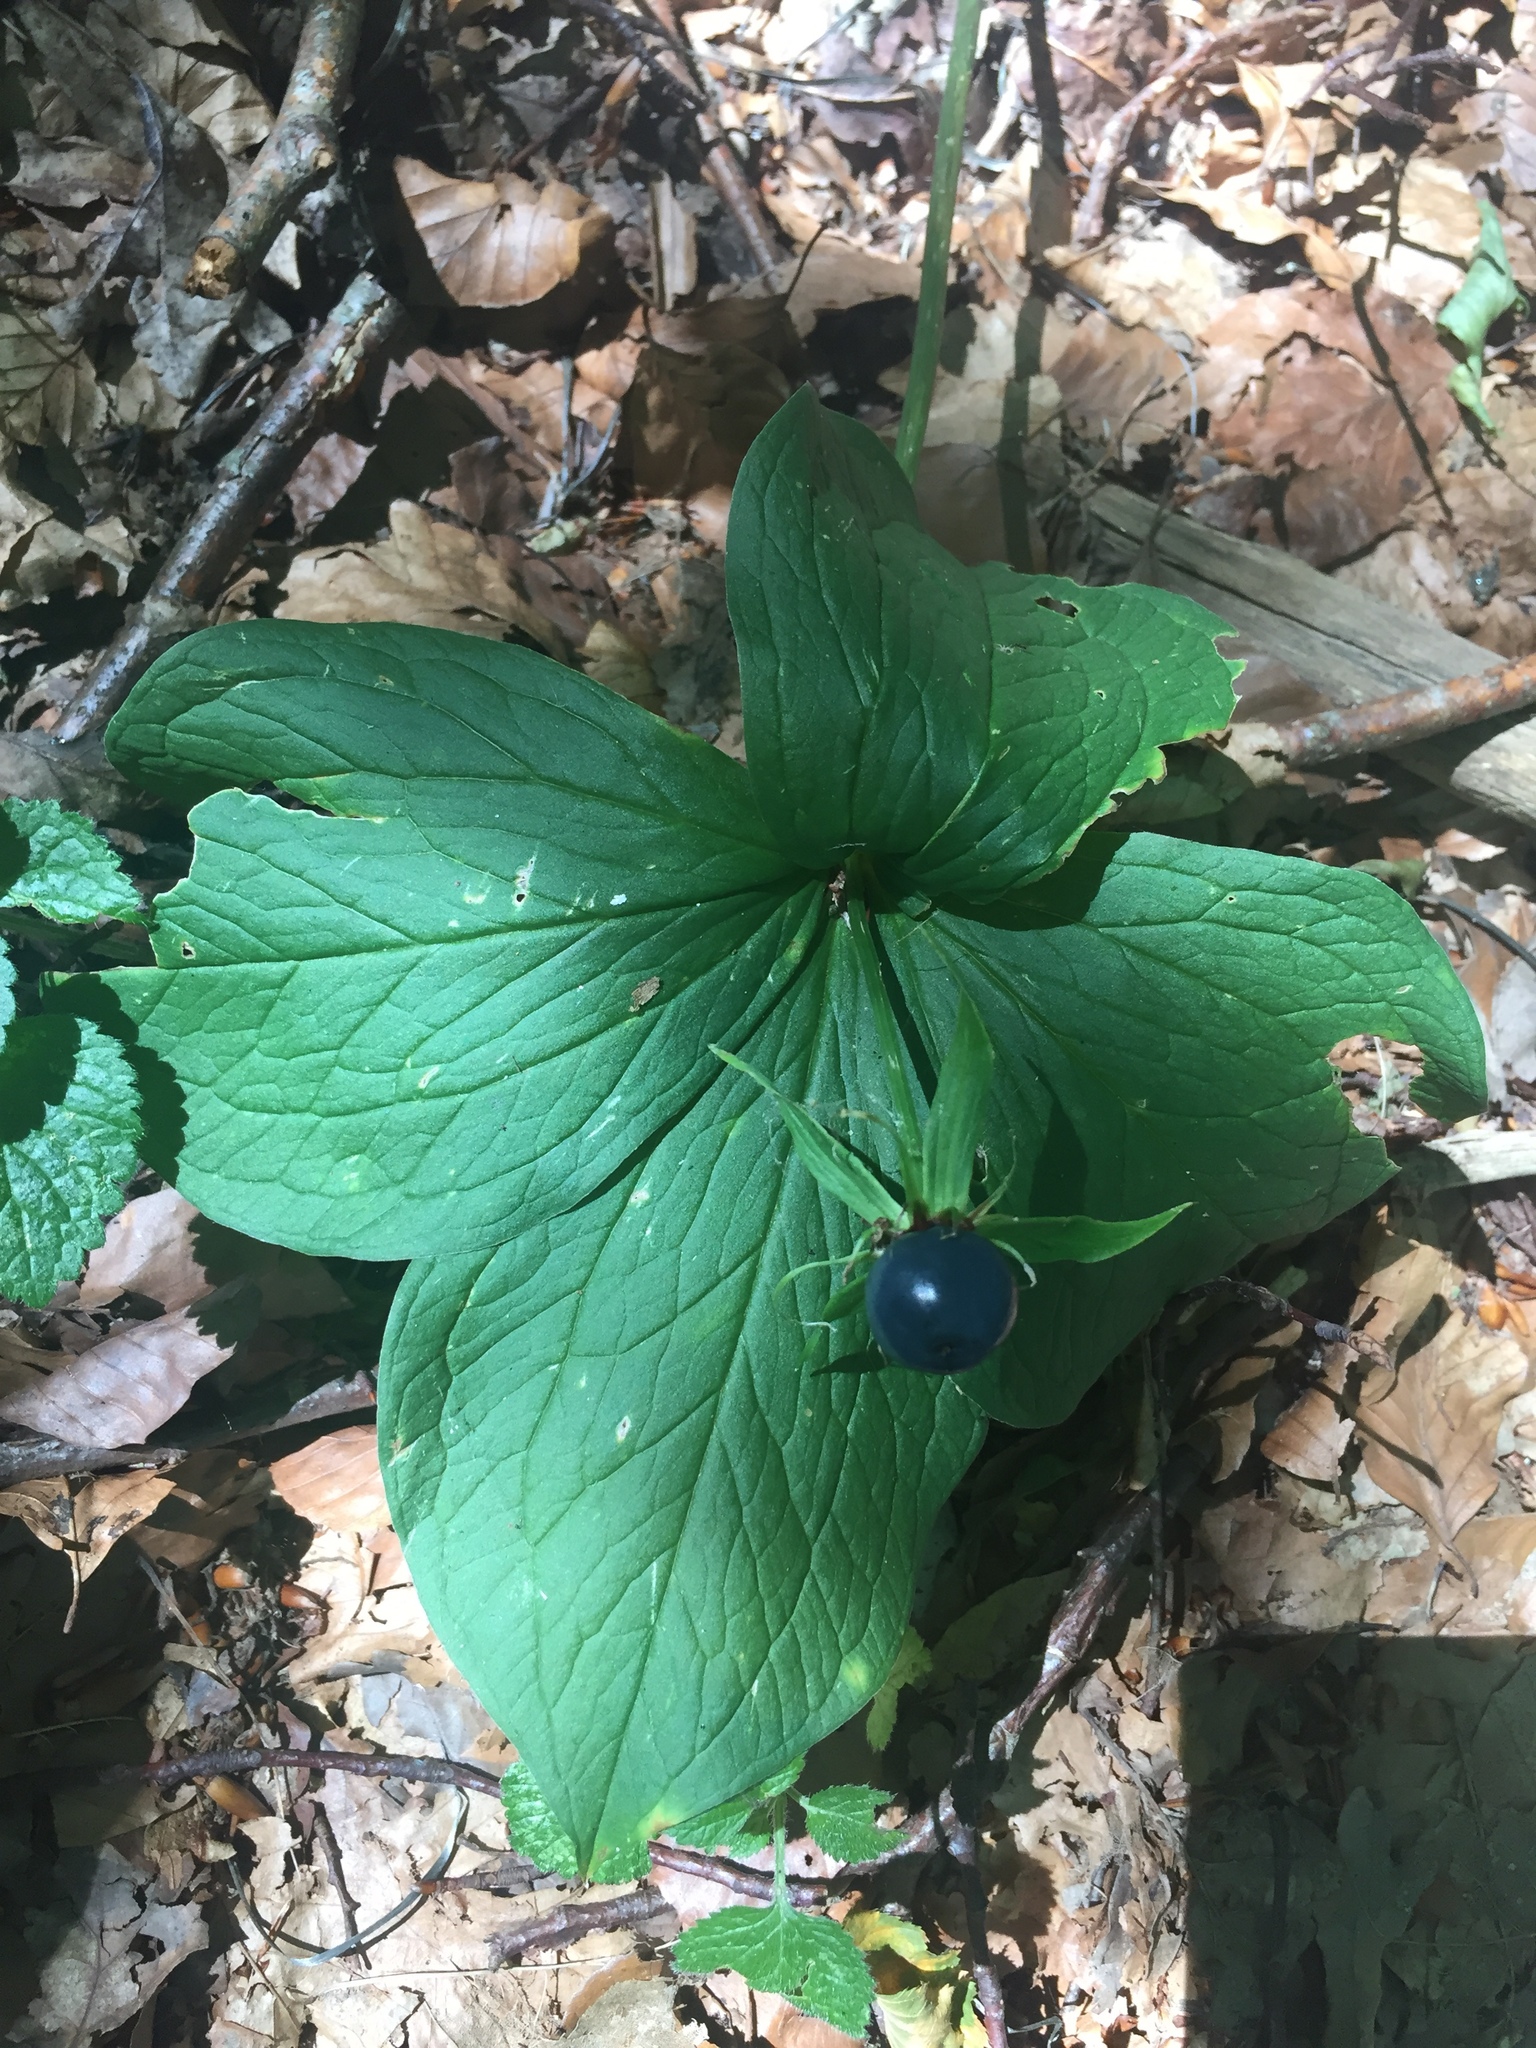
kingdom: Plantae
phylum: Tracheophyta
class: Liliopsida
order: Liliales
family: Melanthiaceae
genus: Paris
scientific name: Paris quadrifolia
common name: Herb-paris
